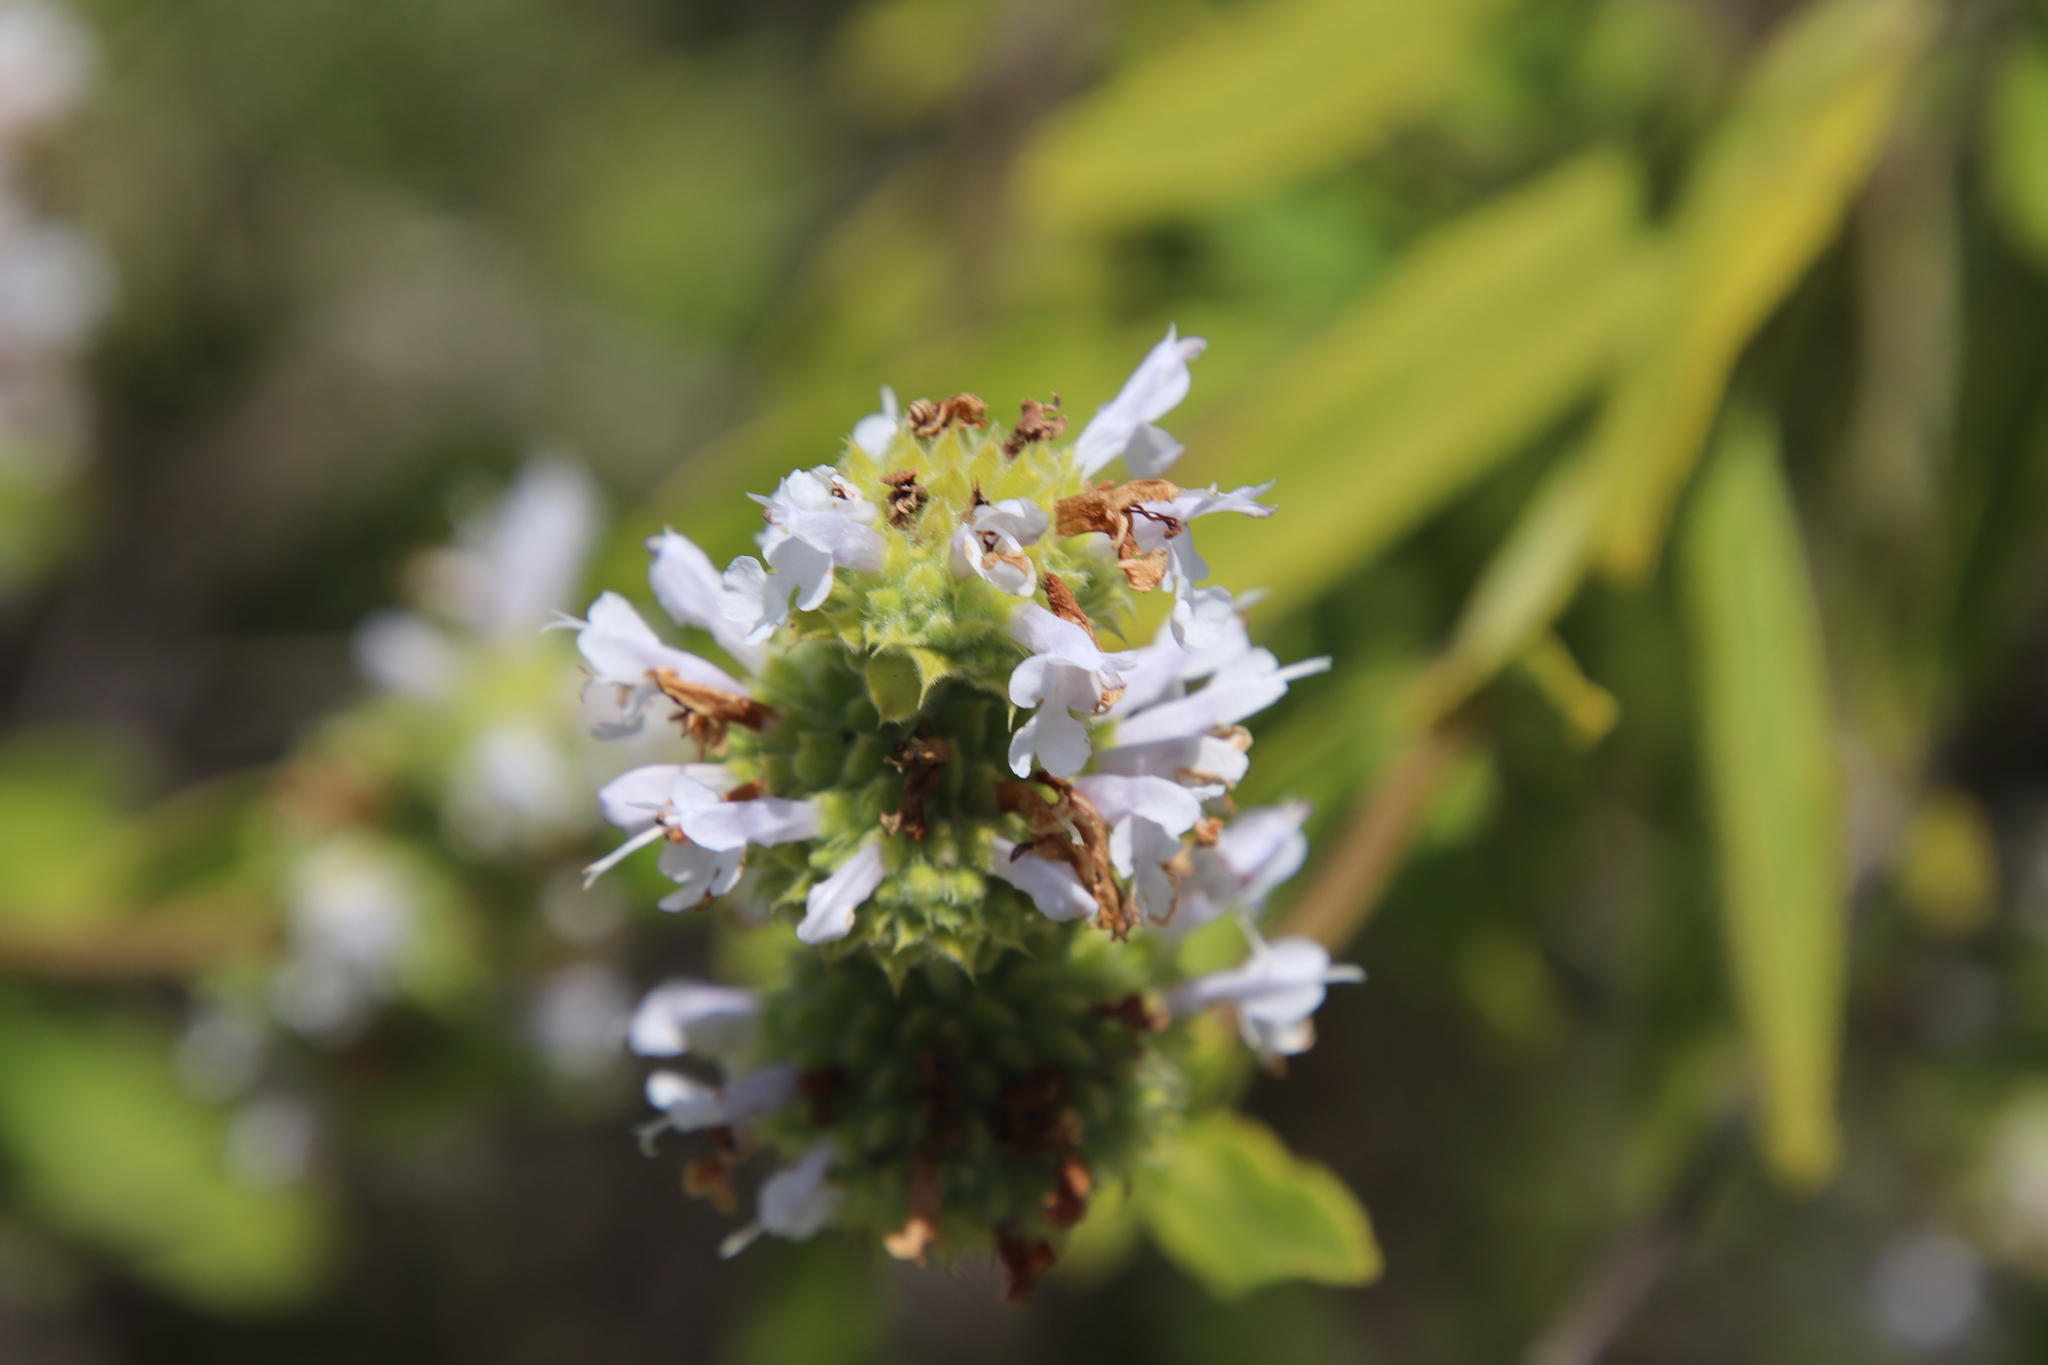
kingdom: Plantae
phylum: Tracheophyta
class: Magnoliopsida
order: Lamiales
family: Lamiaceae
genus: Salvia
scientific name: Salvia mellifera
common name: Black sage
